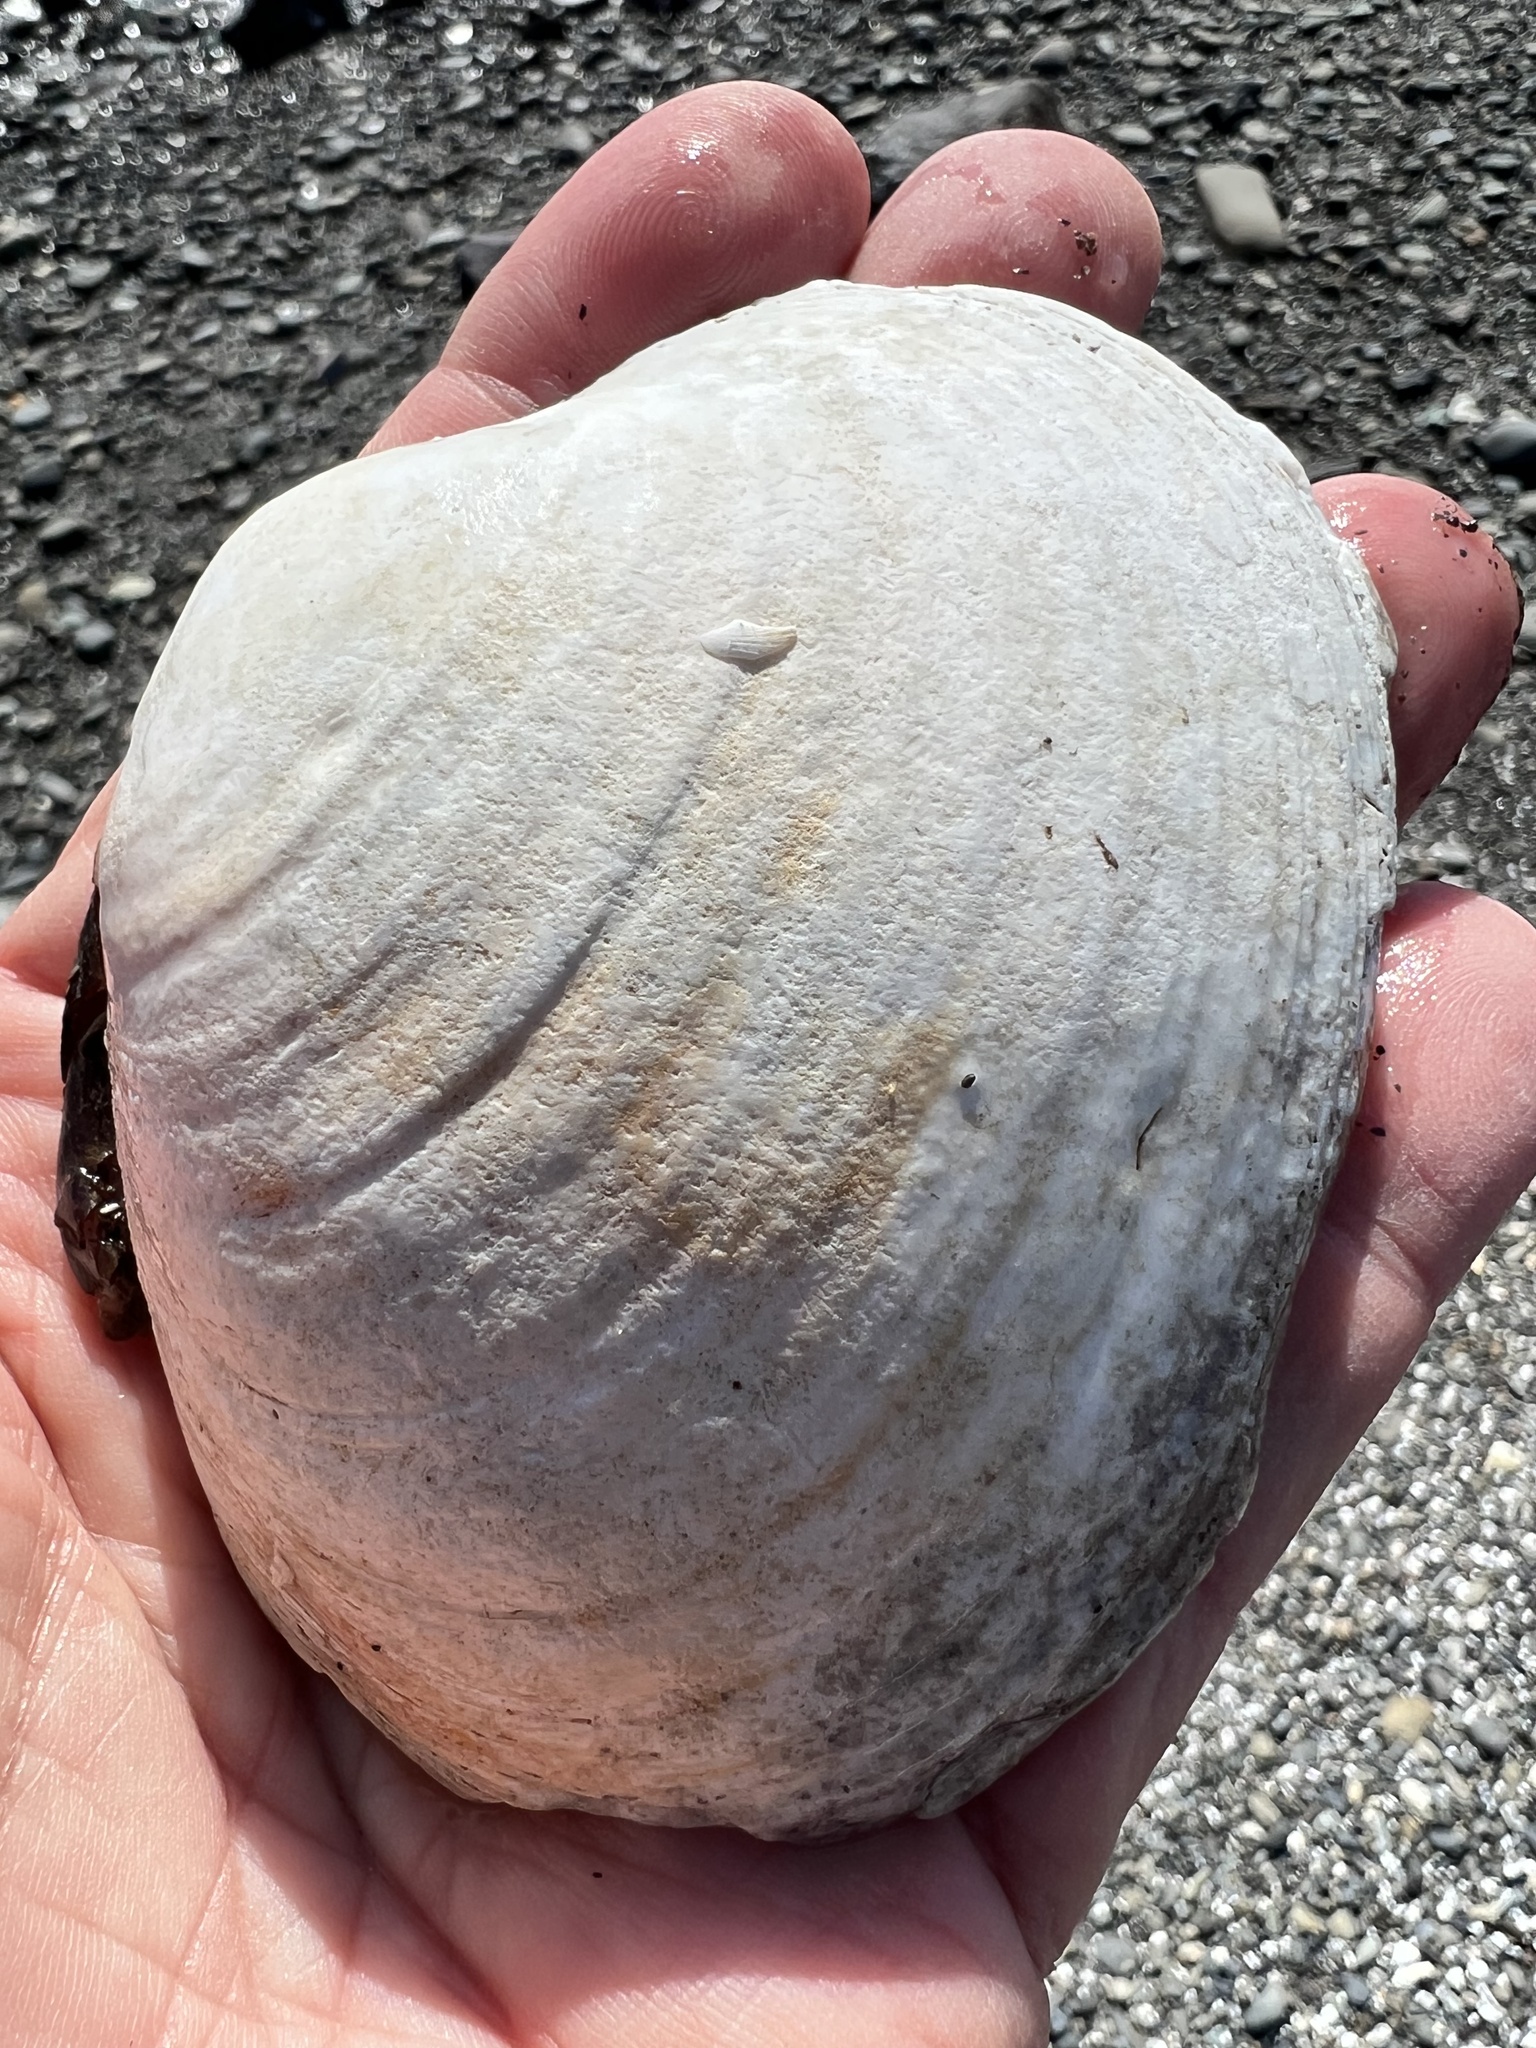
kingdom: Animalia
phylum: Mollusca
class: Bivalvia
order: Venerida
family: Veneridae
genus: Saxidomus
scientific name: Saxidomus gigantea
